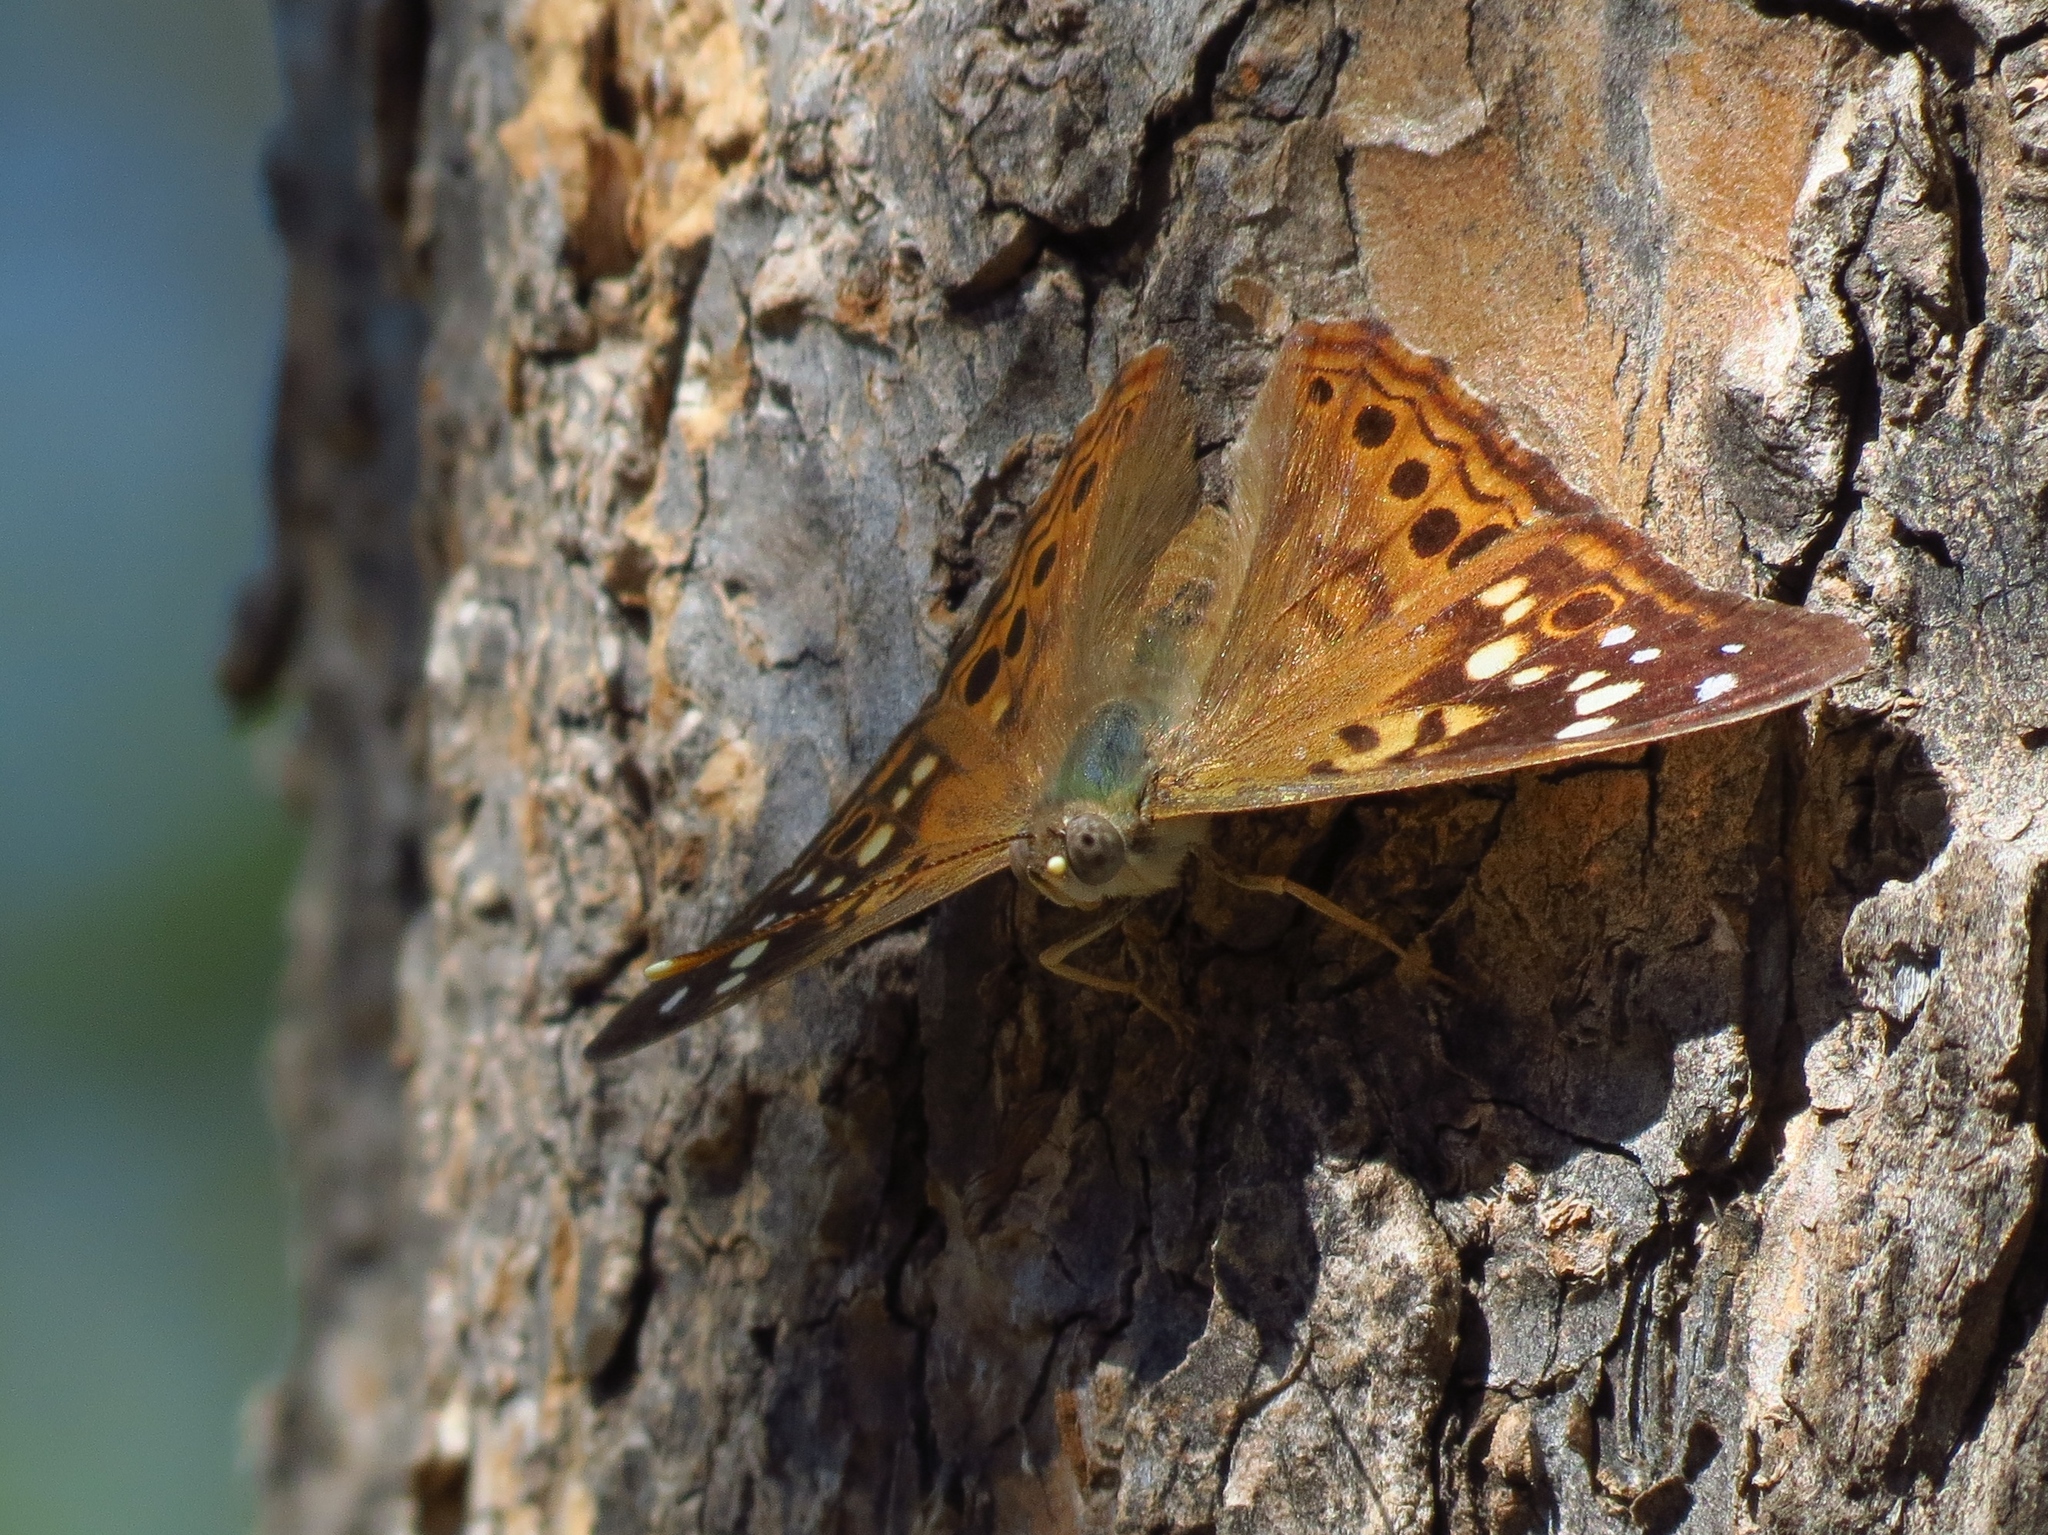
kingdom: Animalia
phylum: Arthropoda
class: Insecta
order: Lepidoptera
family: Nymphalidae
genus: Asterocampa
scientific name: Asterocampa celtis
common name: Hackberry emperor
